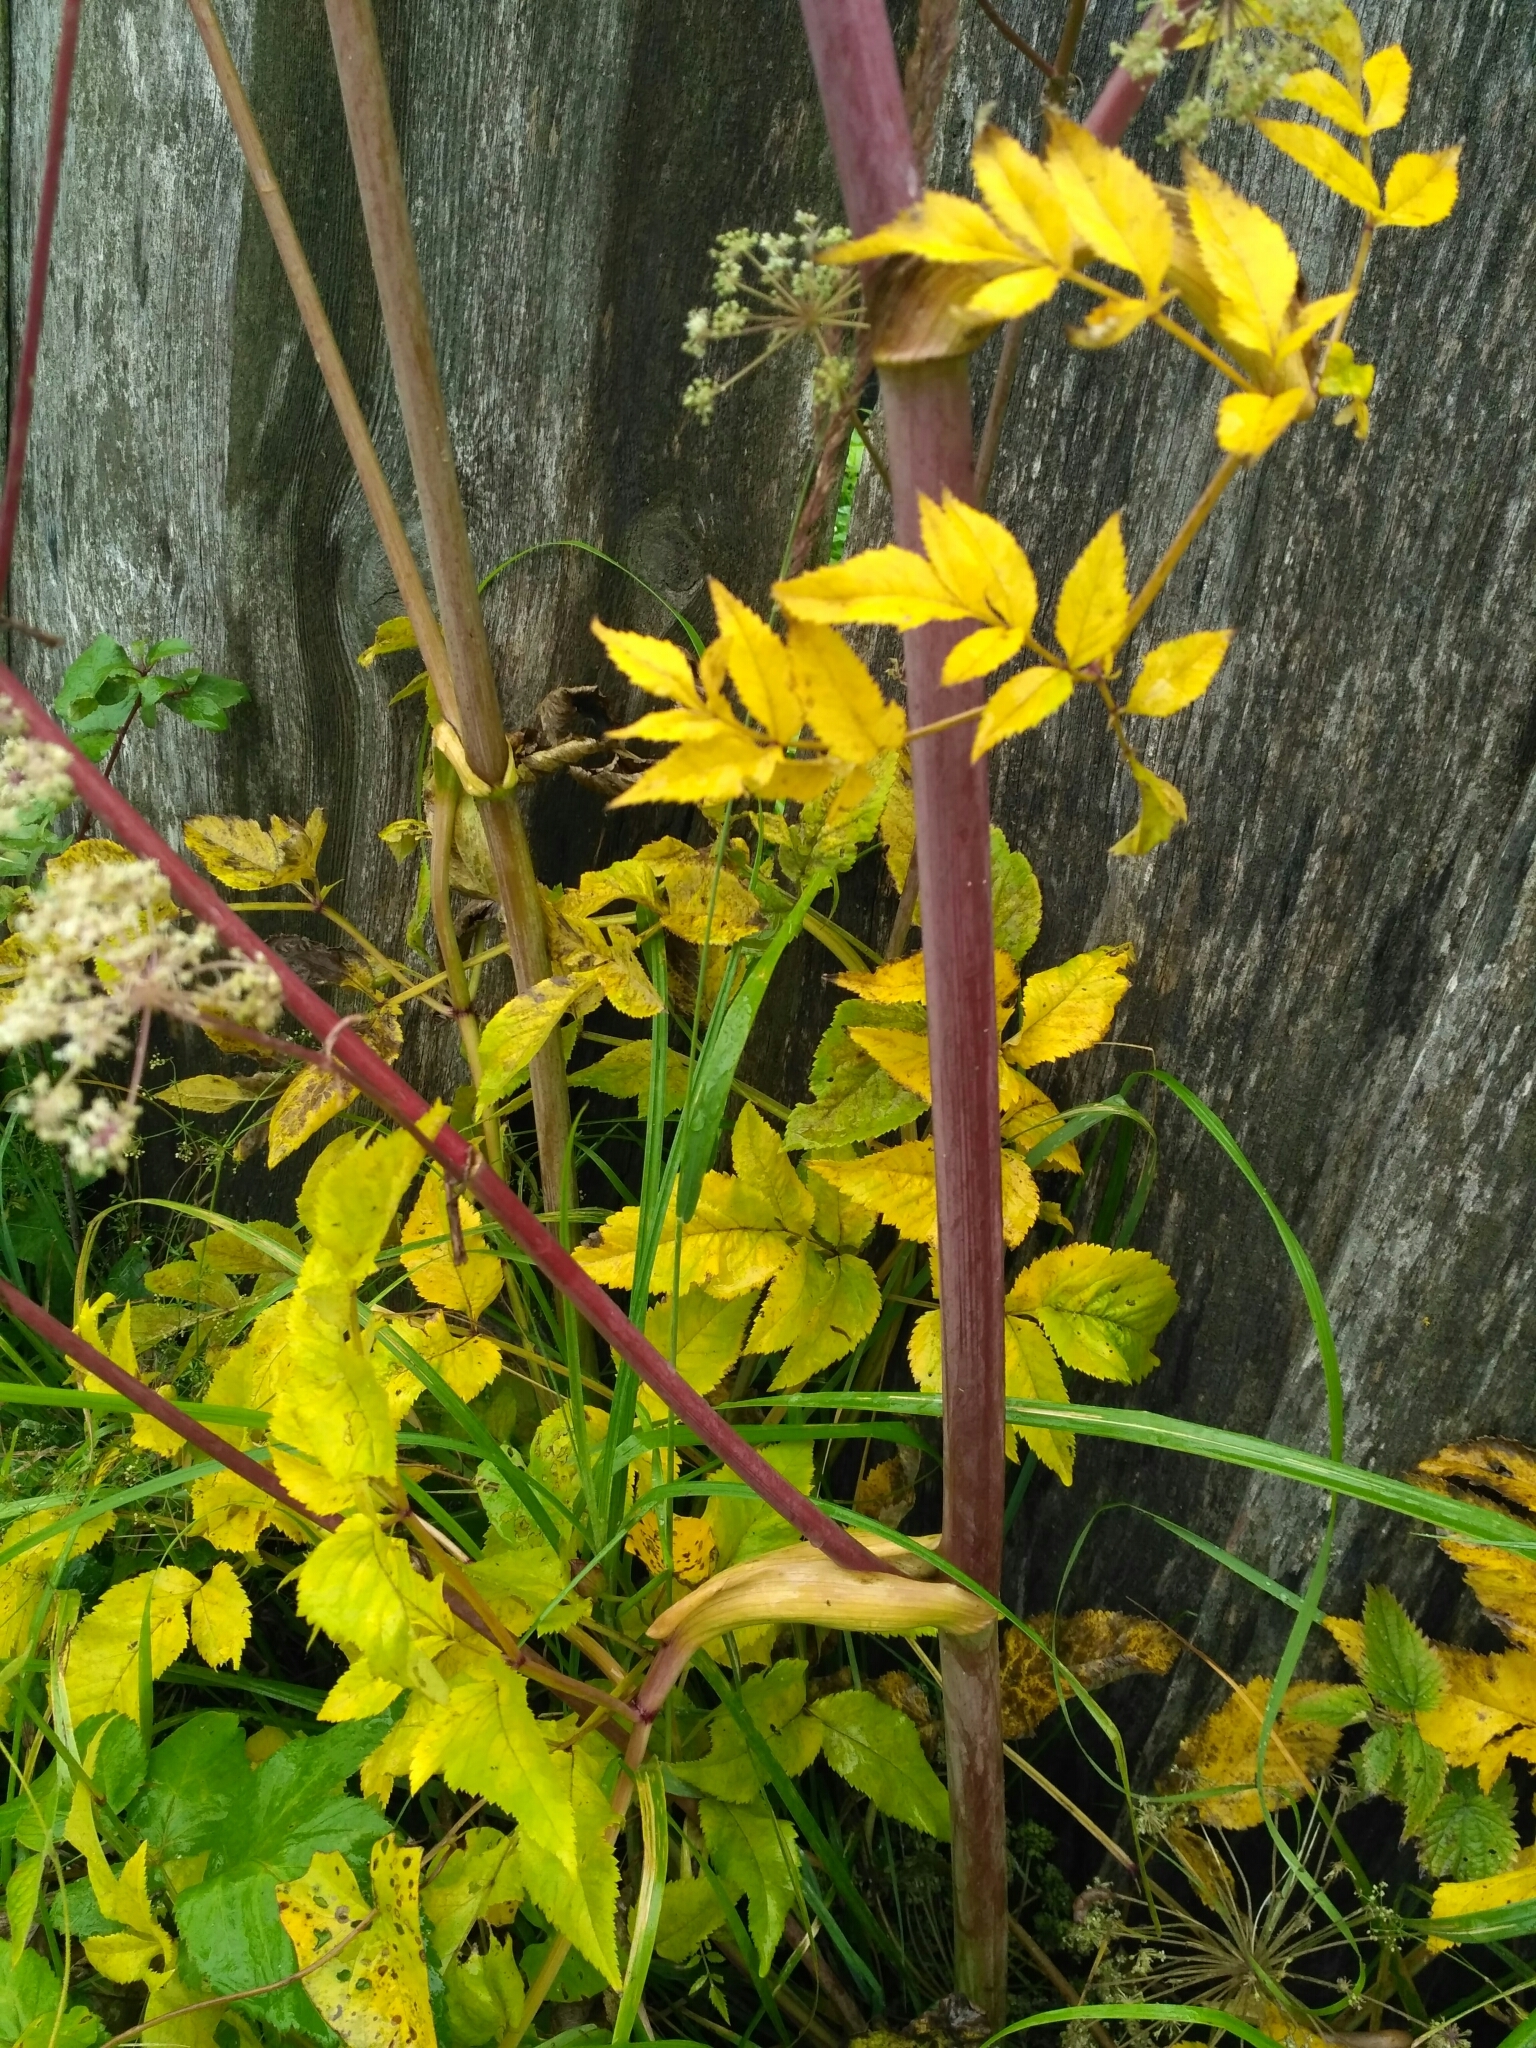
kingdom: Plantae
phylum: Tracheophyta
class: Magnoliopsida
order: Apiales
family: Apiaceae
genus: Angelica
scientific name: Angelica sylvestris
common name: Wild angelica
